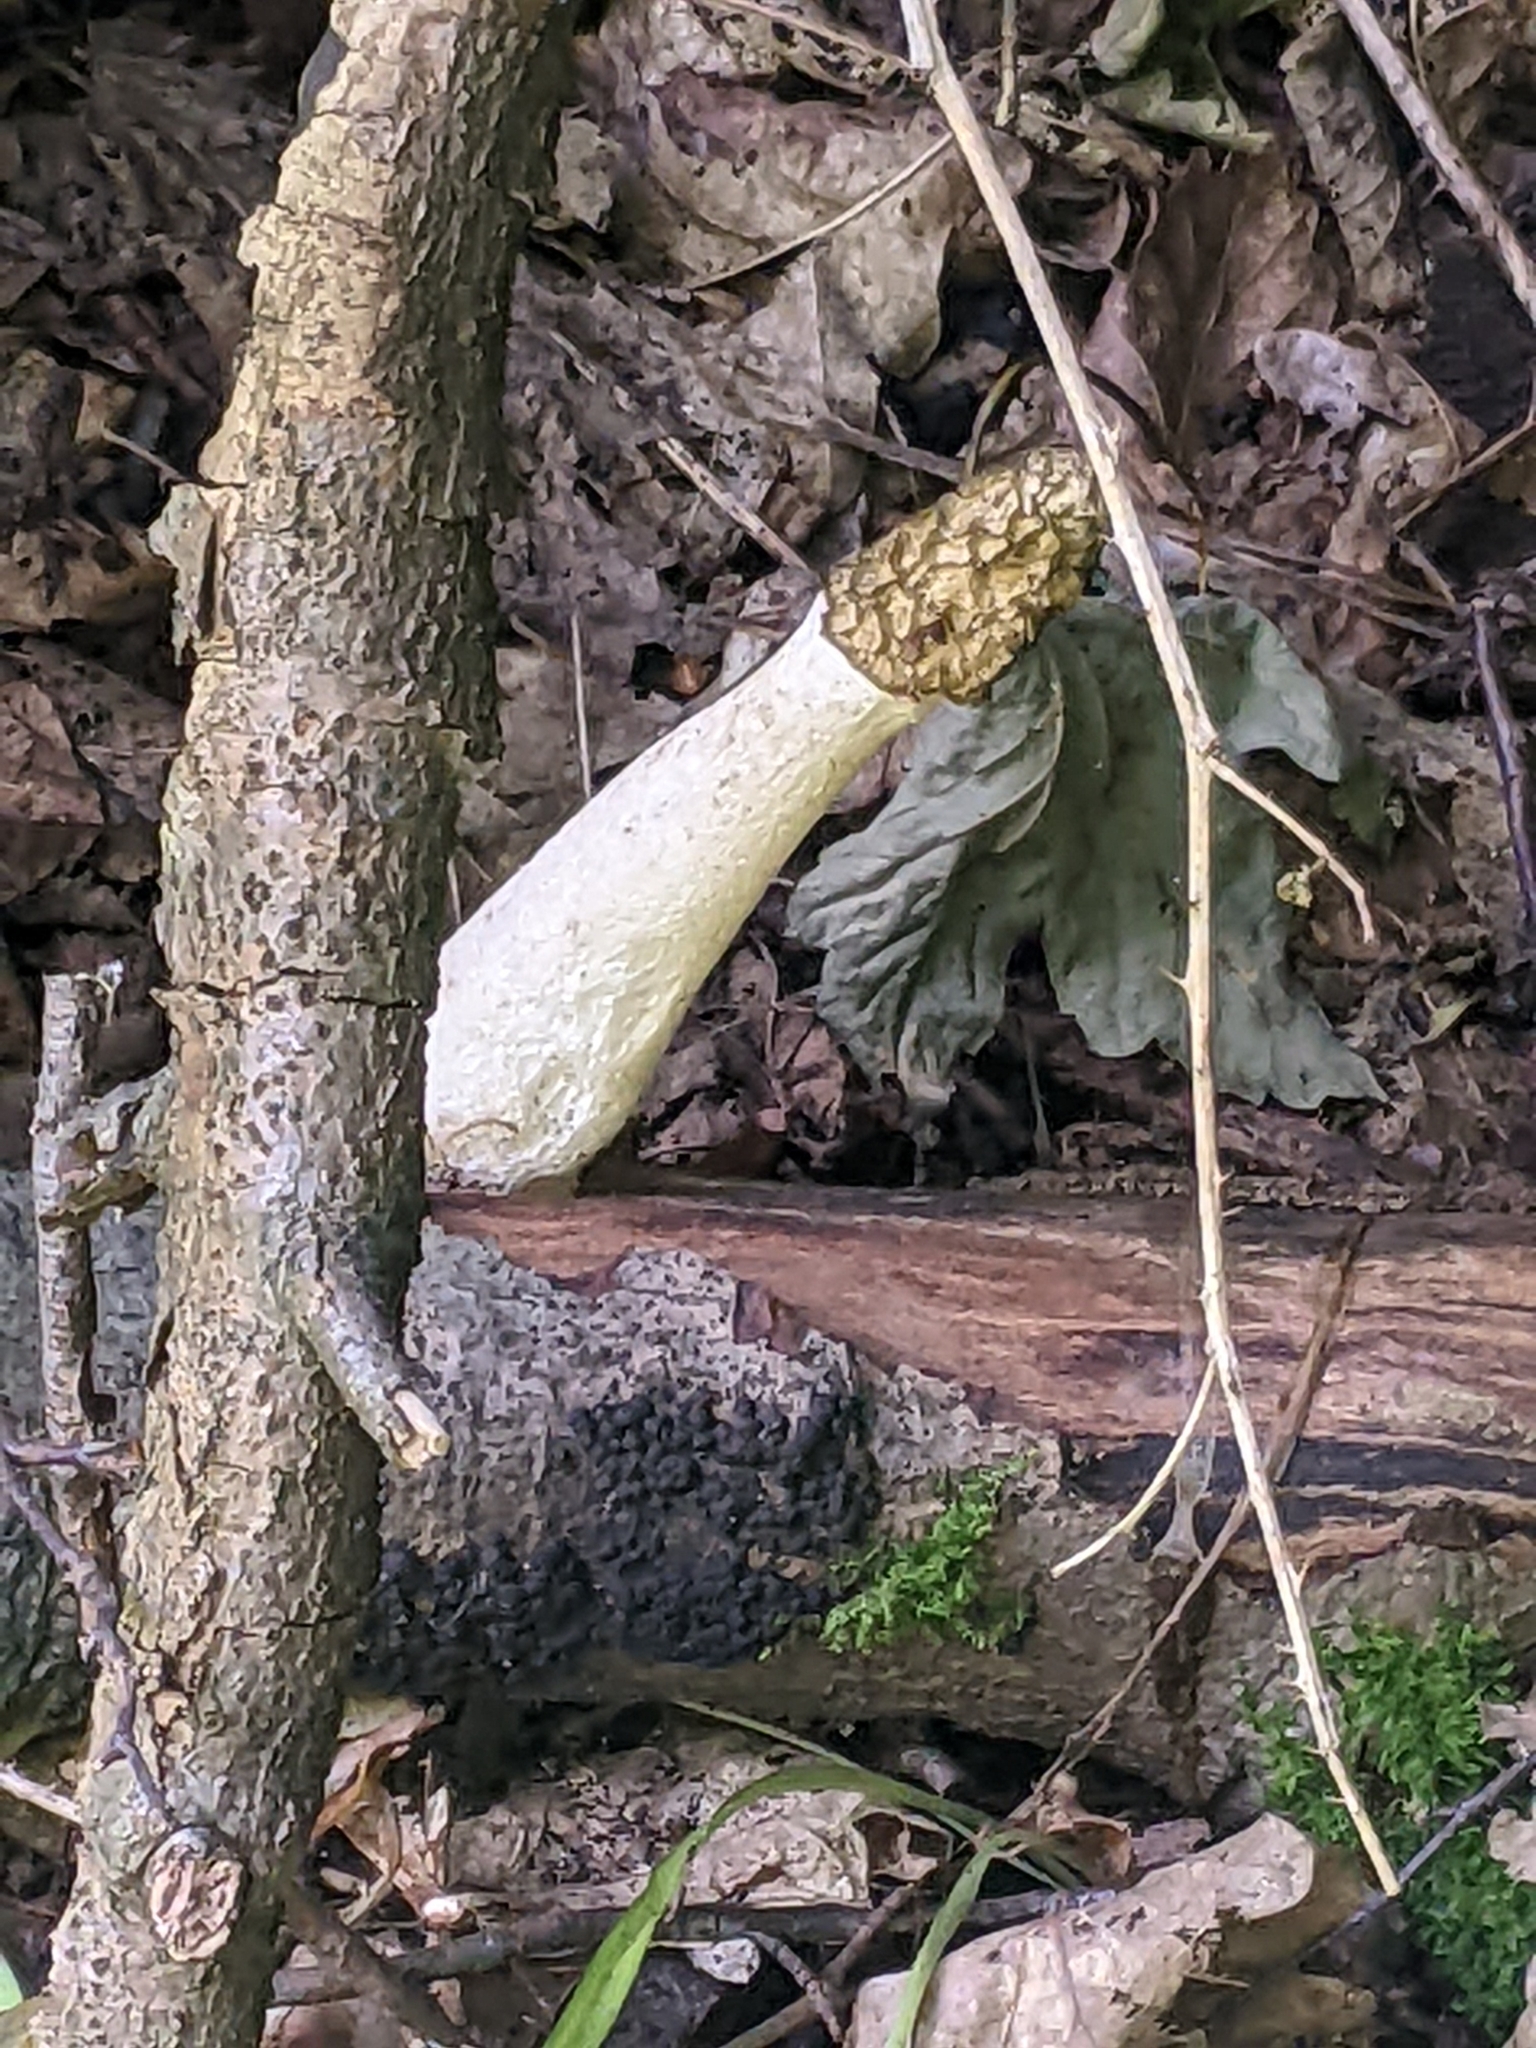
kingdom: Fungi
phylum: Basidiomycota
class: Agaricomycetes
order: Phallales
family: Phallaceae
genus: Phallus
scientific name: Phallus impudicus
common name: Common stinkhorn
